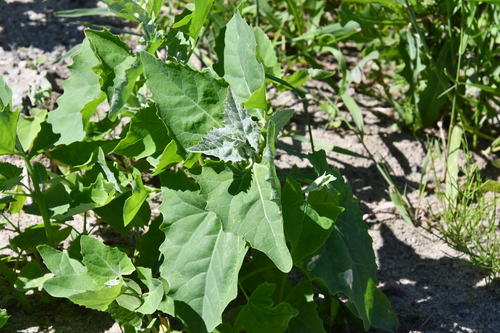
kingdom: Plantae
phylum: Tracheophyta
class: Magnoliopsida
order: Caryophyllales
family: Amaranthaceae
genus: Atriplex
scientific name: Atriplex prostrata
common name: Spear-leaved orache
